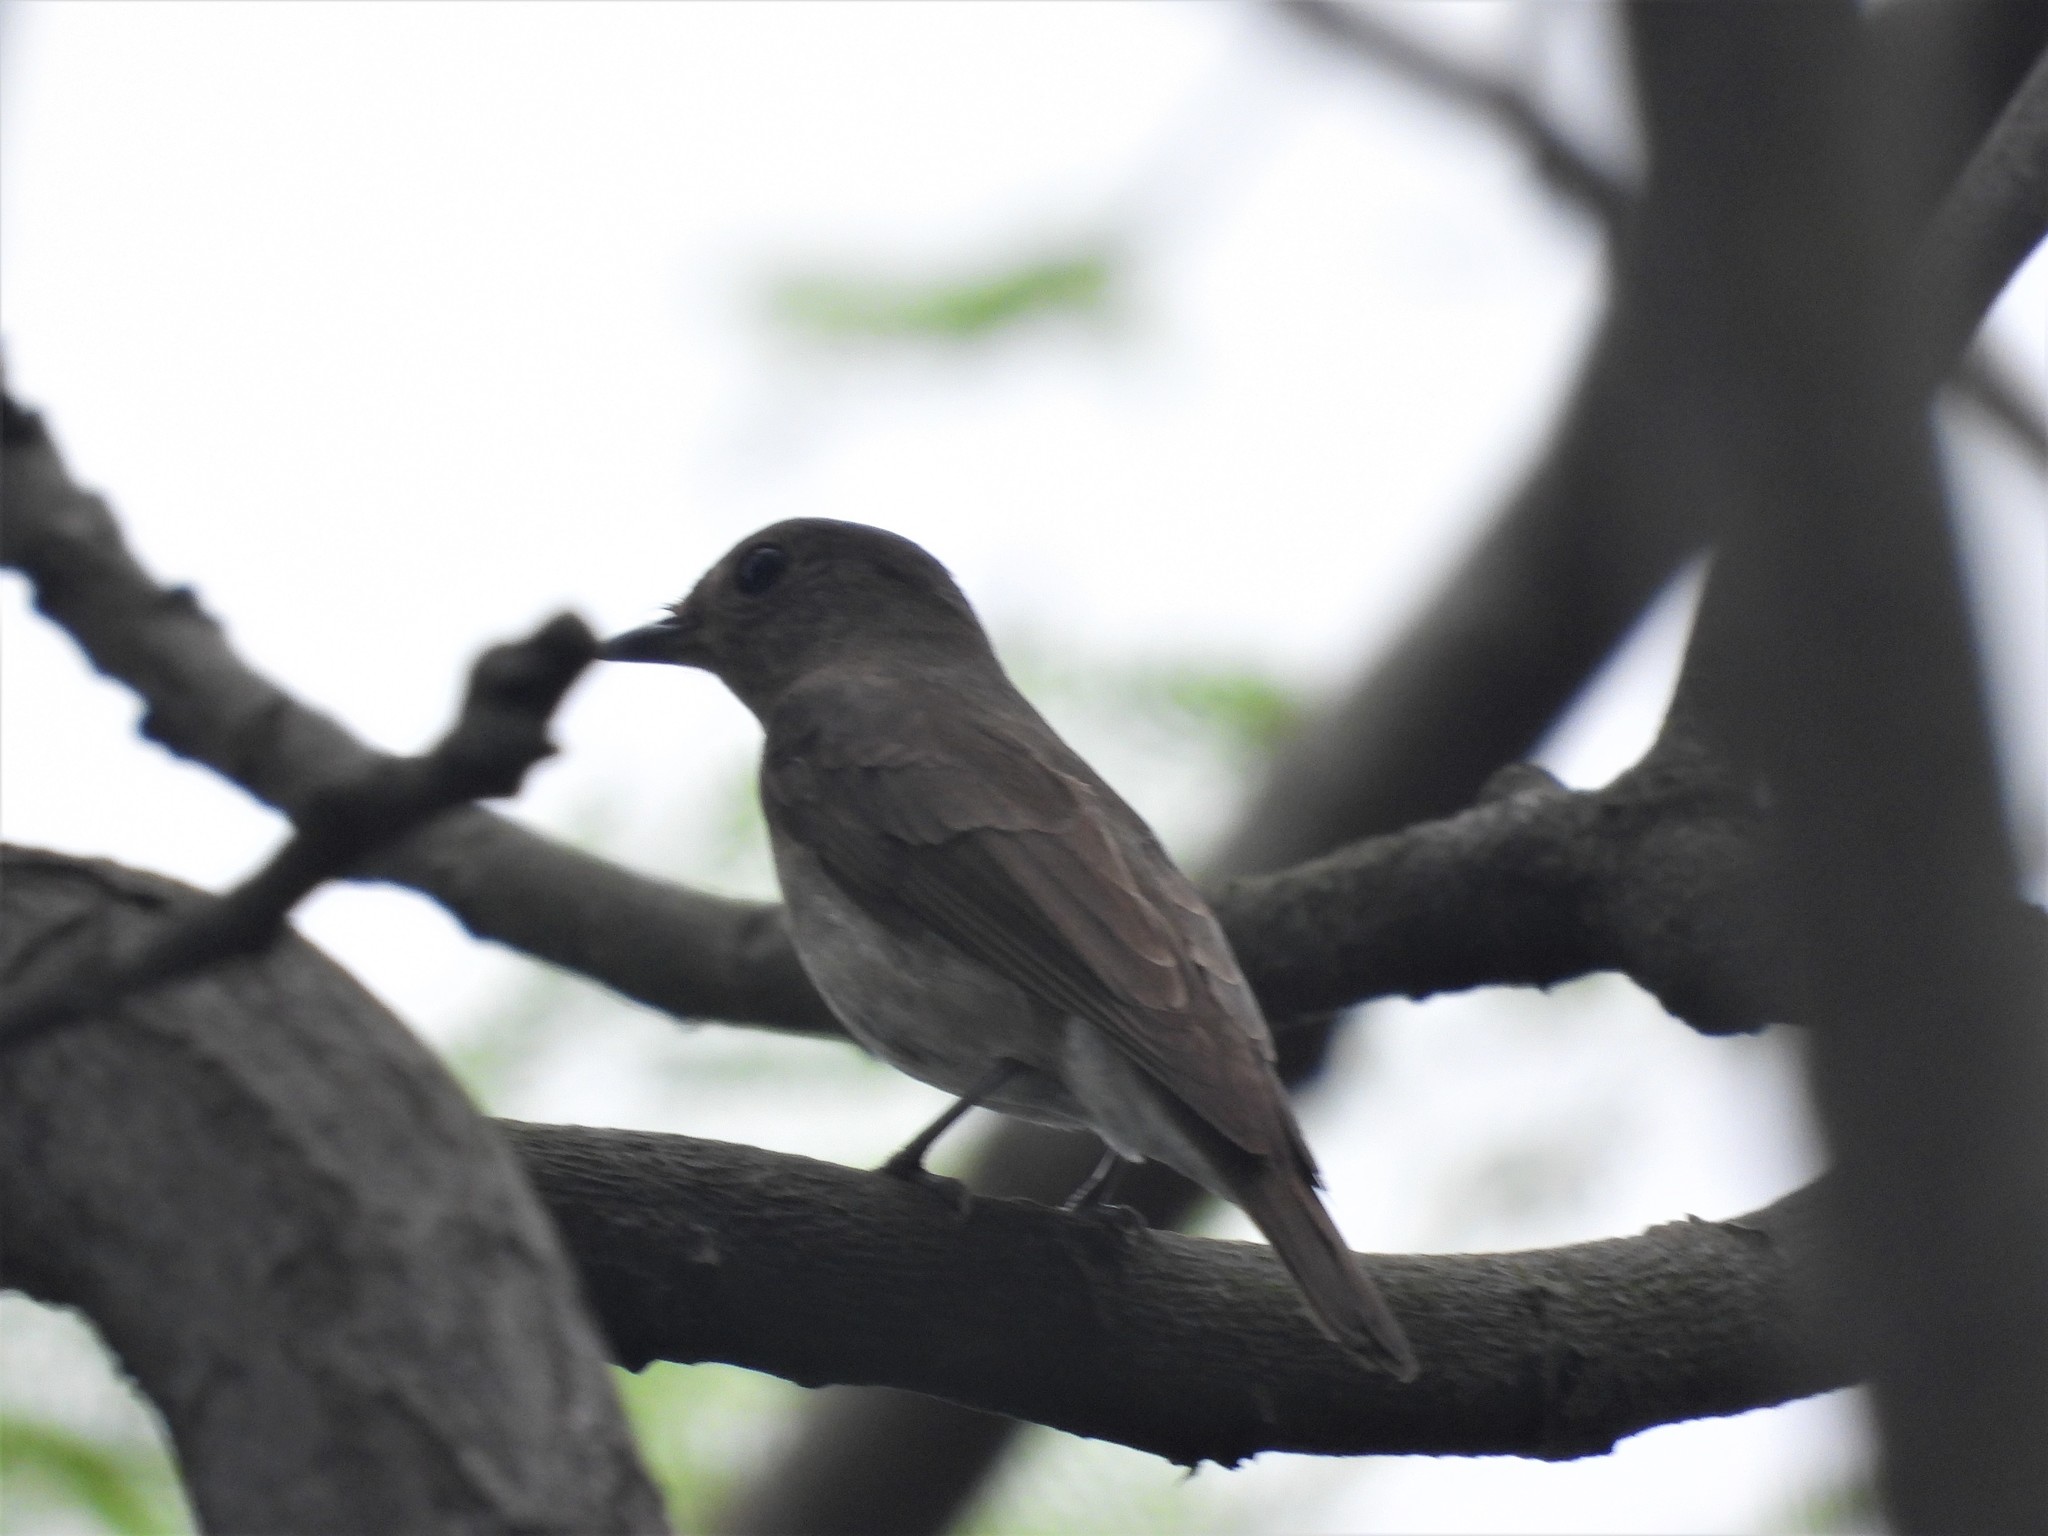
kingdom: Animalia
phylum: Chordata
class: Aves
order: Passeriformes
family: Muscicapidae
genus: Cyanoptila
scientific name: Cyanoptila cyanomelana
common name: Blue-and-white flycatcher
